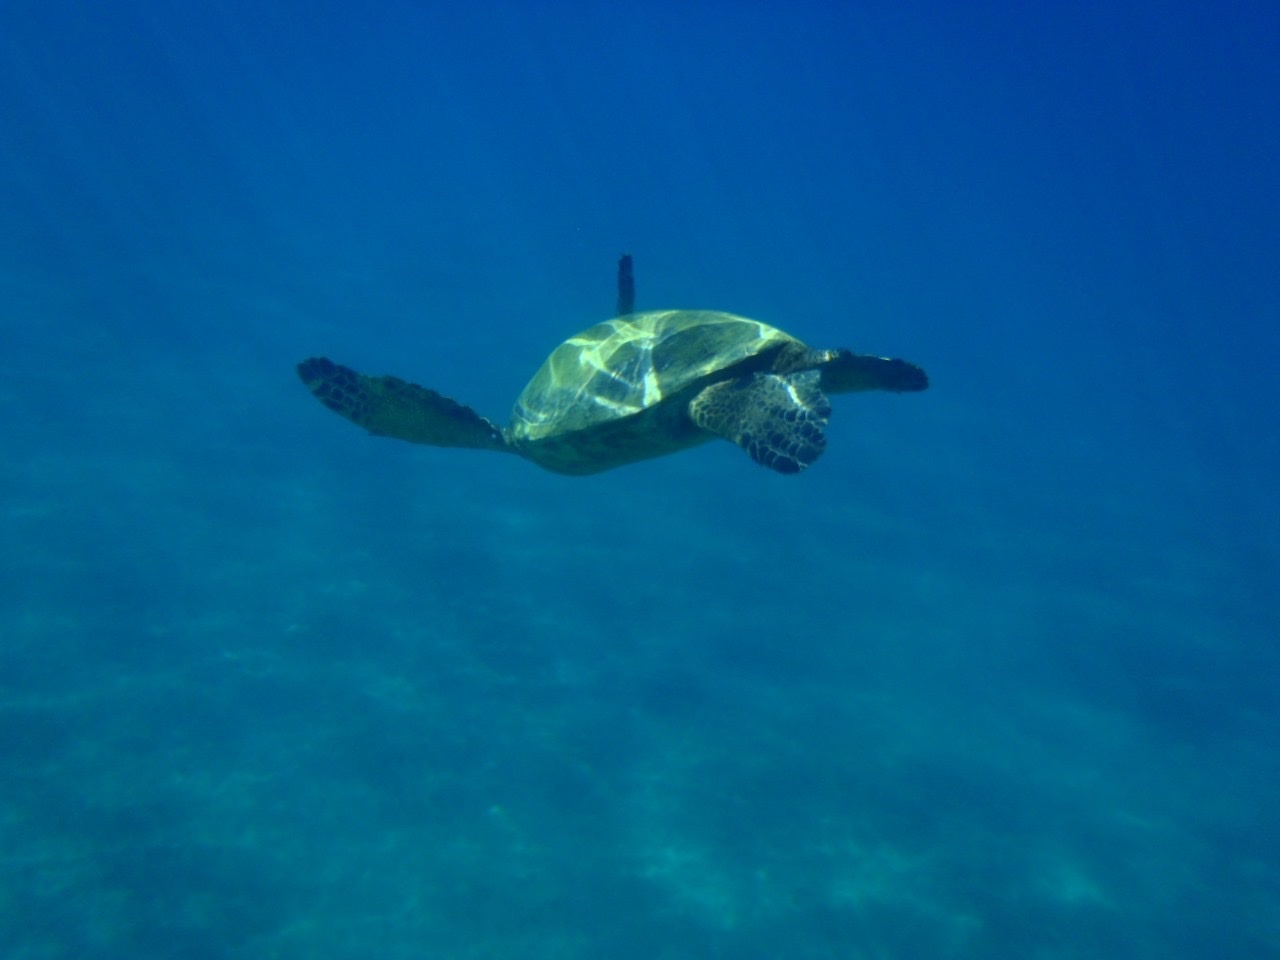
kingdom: Animalia
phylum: Chordata
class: Testudines
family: Cheloniidae
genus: Chelonia
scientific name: Chelonia mydas
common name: Green turtle
